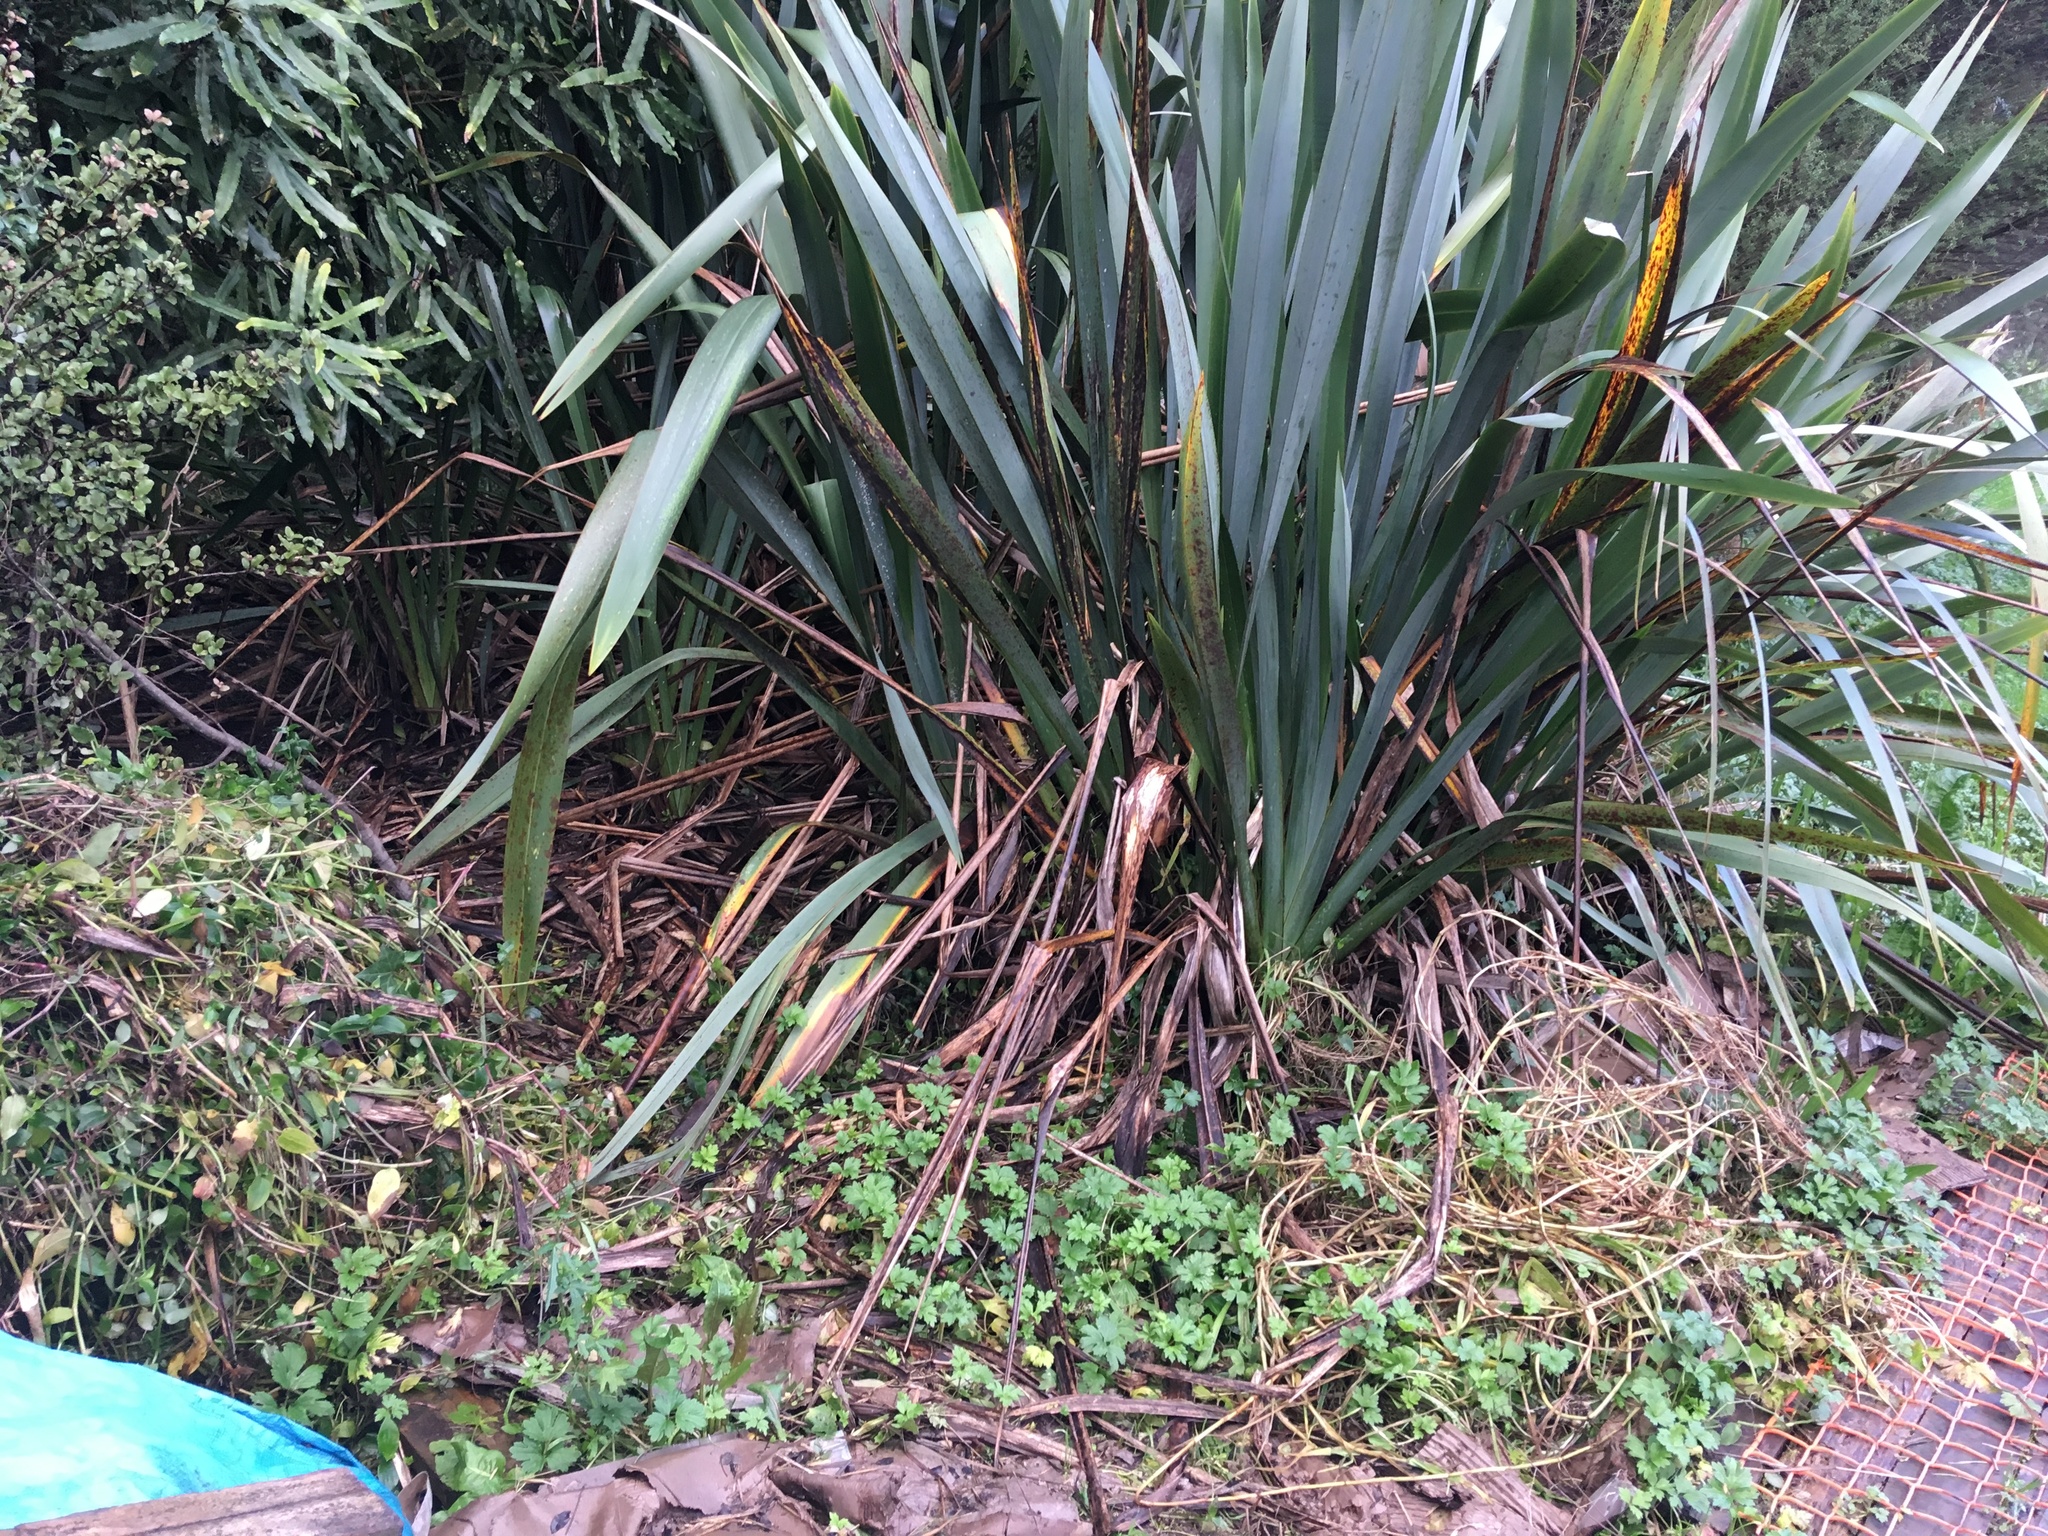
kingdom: Plantae
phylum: Tracheophyta
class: Magnoliopsida
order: Ranunculales
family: Ranunculaceae
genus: Ranunculus
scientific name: Ranunculus repens
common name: Creeping buttercup
